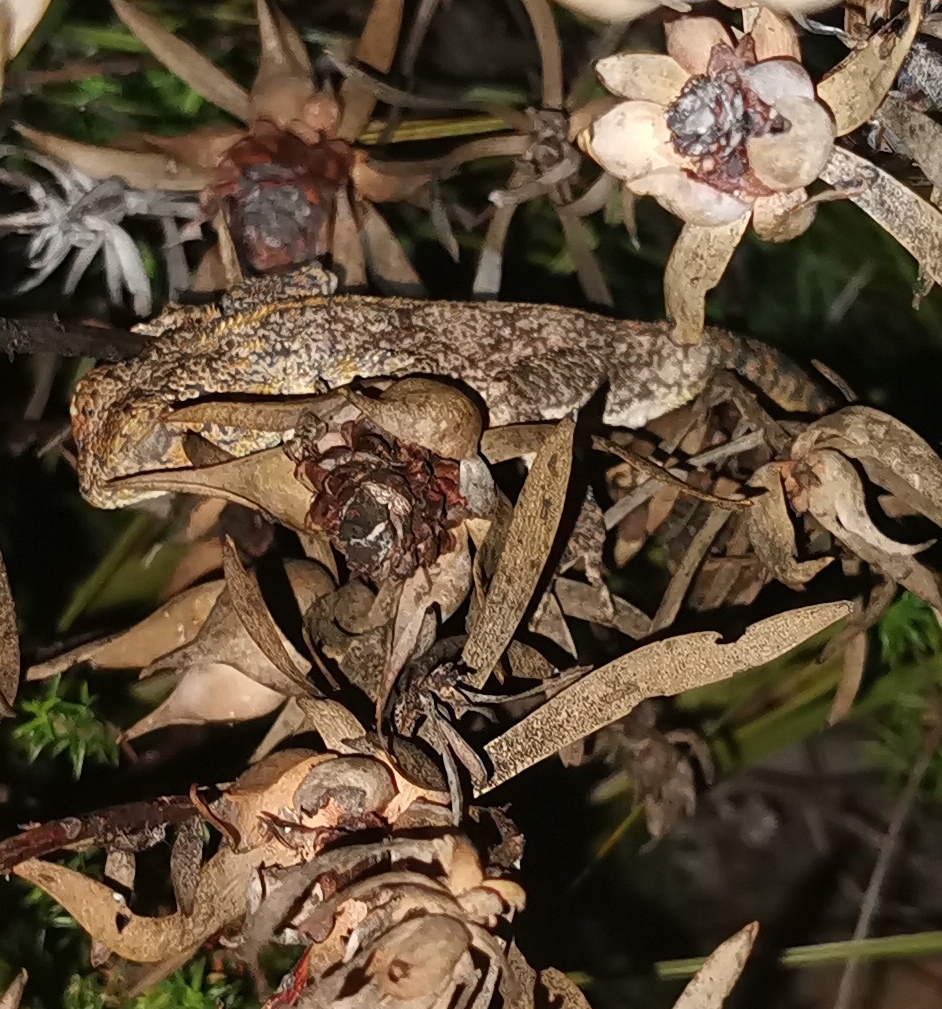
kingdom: Animalia
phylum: Chordata
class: Squamata
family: Agamidae
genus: Agama
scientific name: Agama atra
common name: Southern african rock agama
